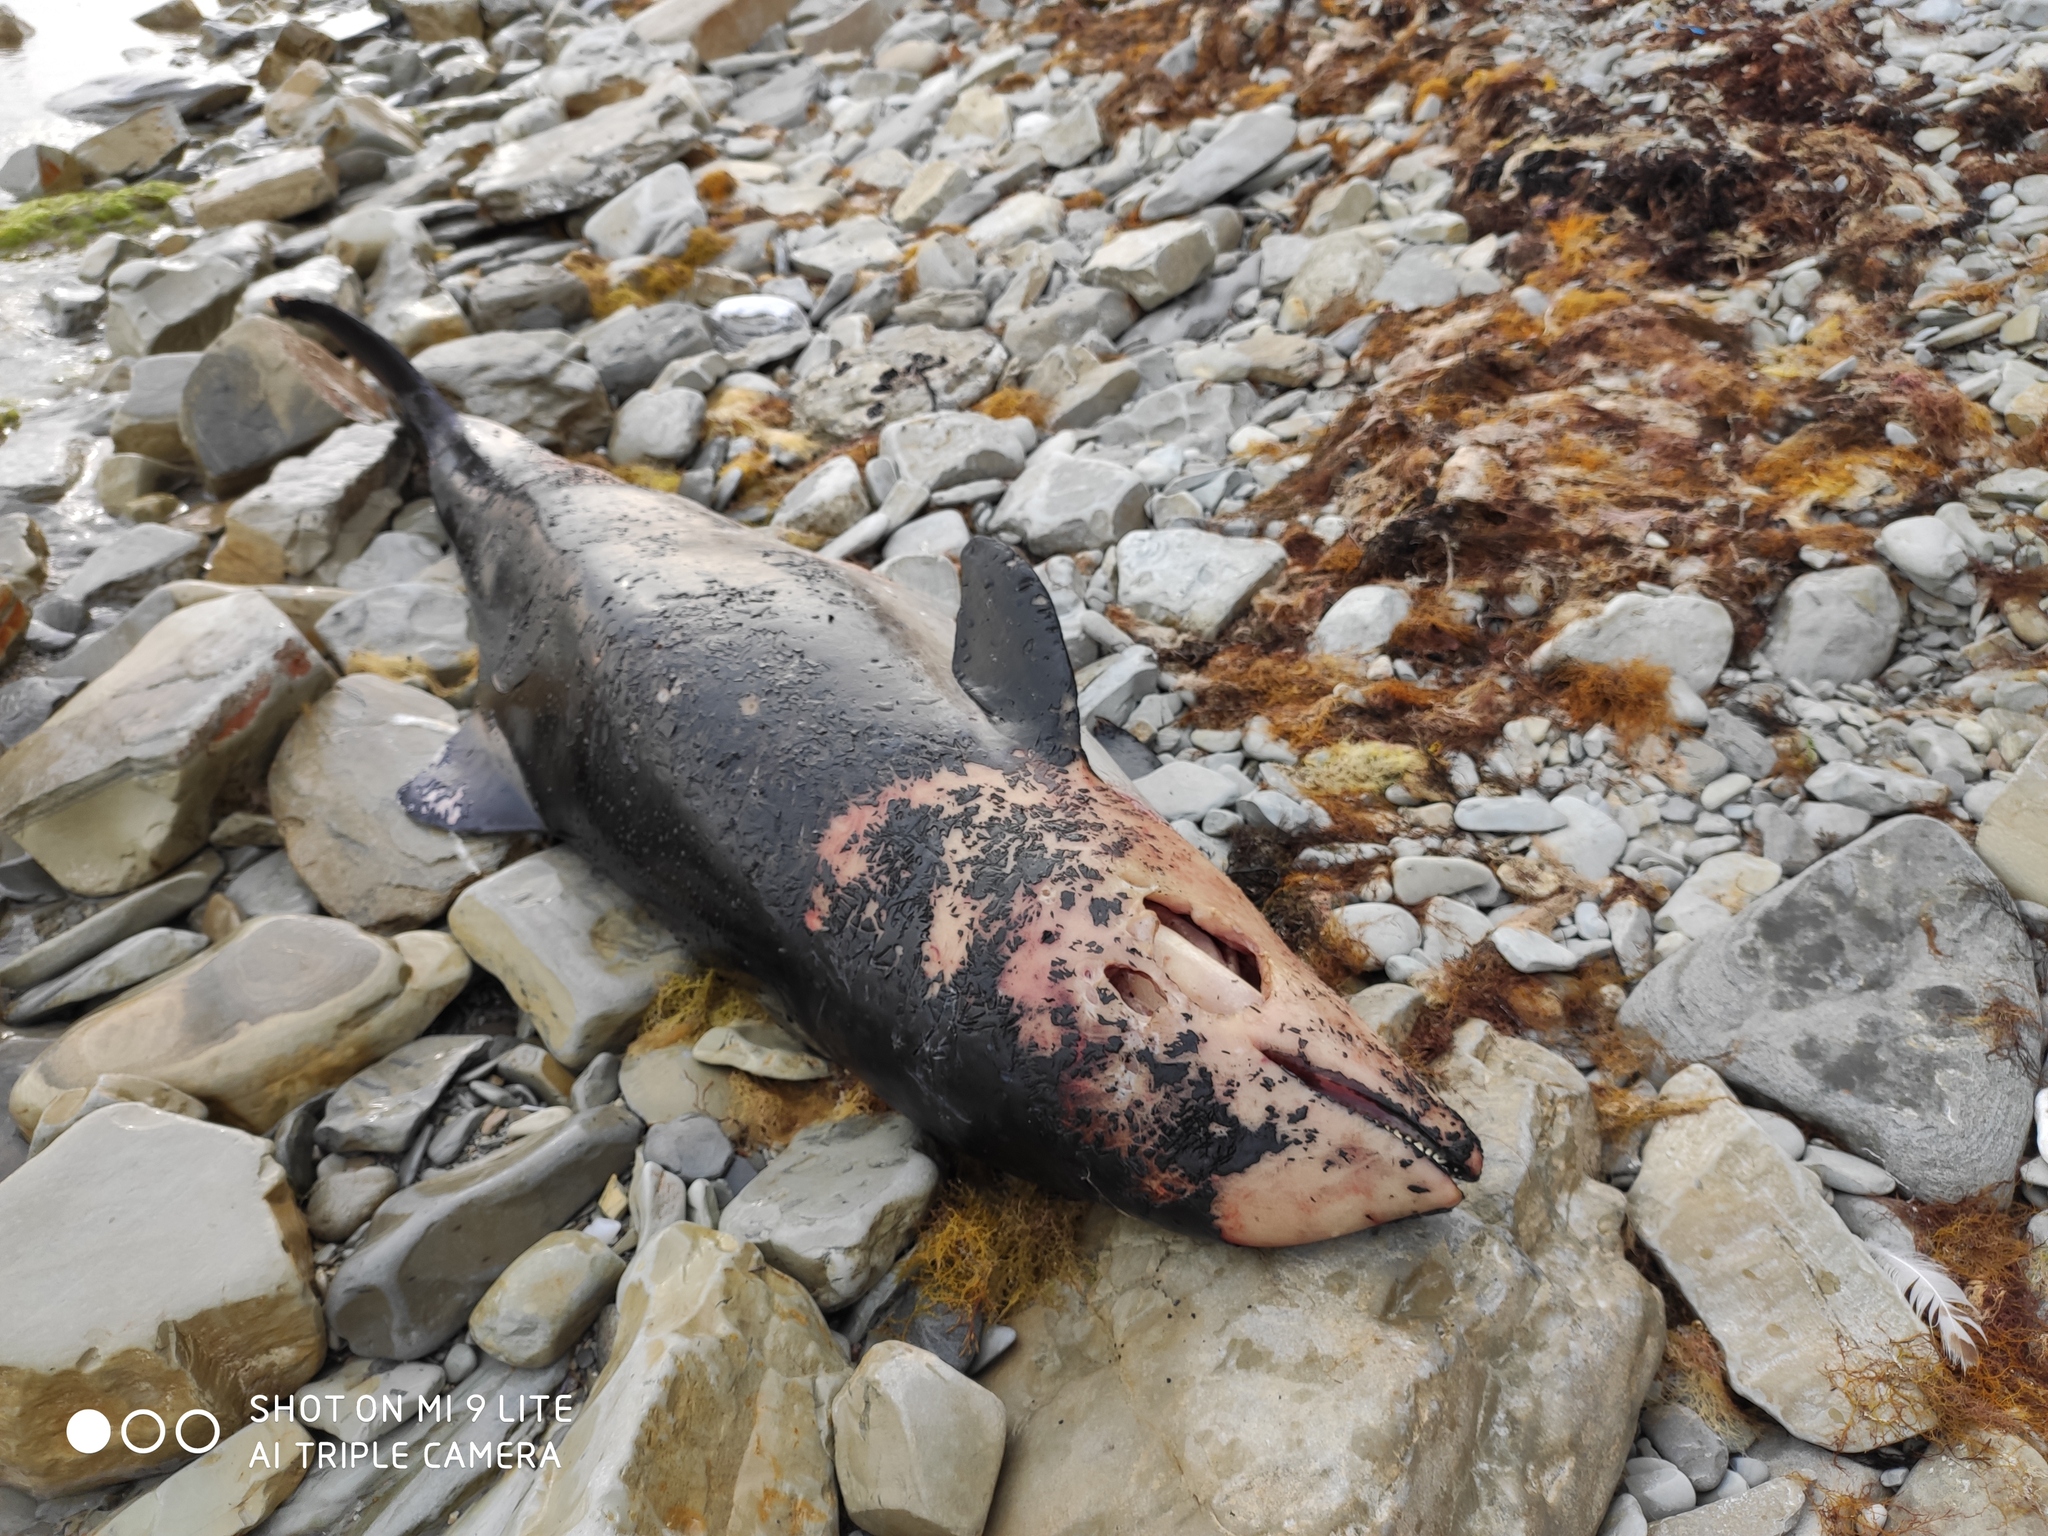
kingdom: Animalia
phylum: Chordata
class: Mammalia
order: Cetacea
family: Phocoenidae
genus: Phocoena
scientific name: Phocoena phocoena
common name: Harbor porpoise
